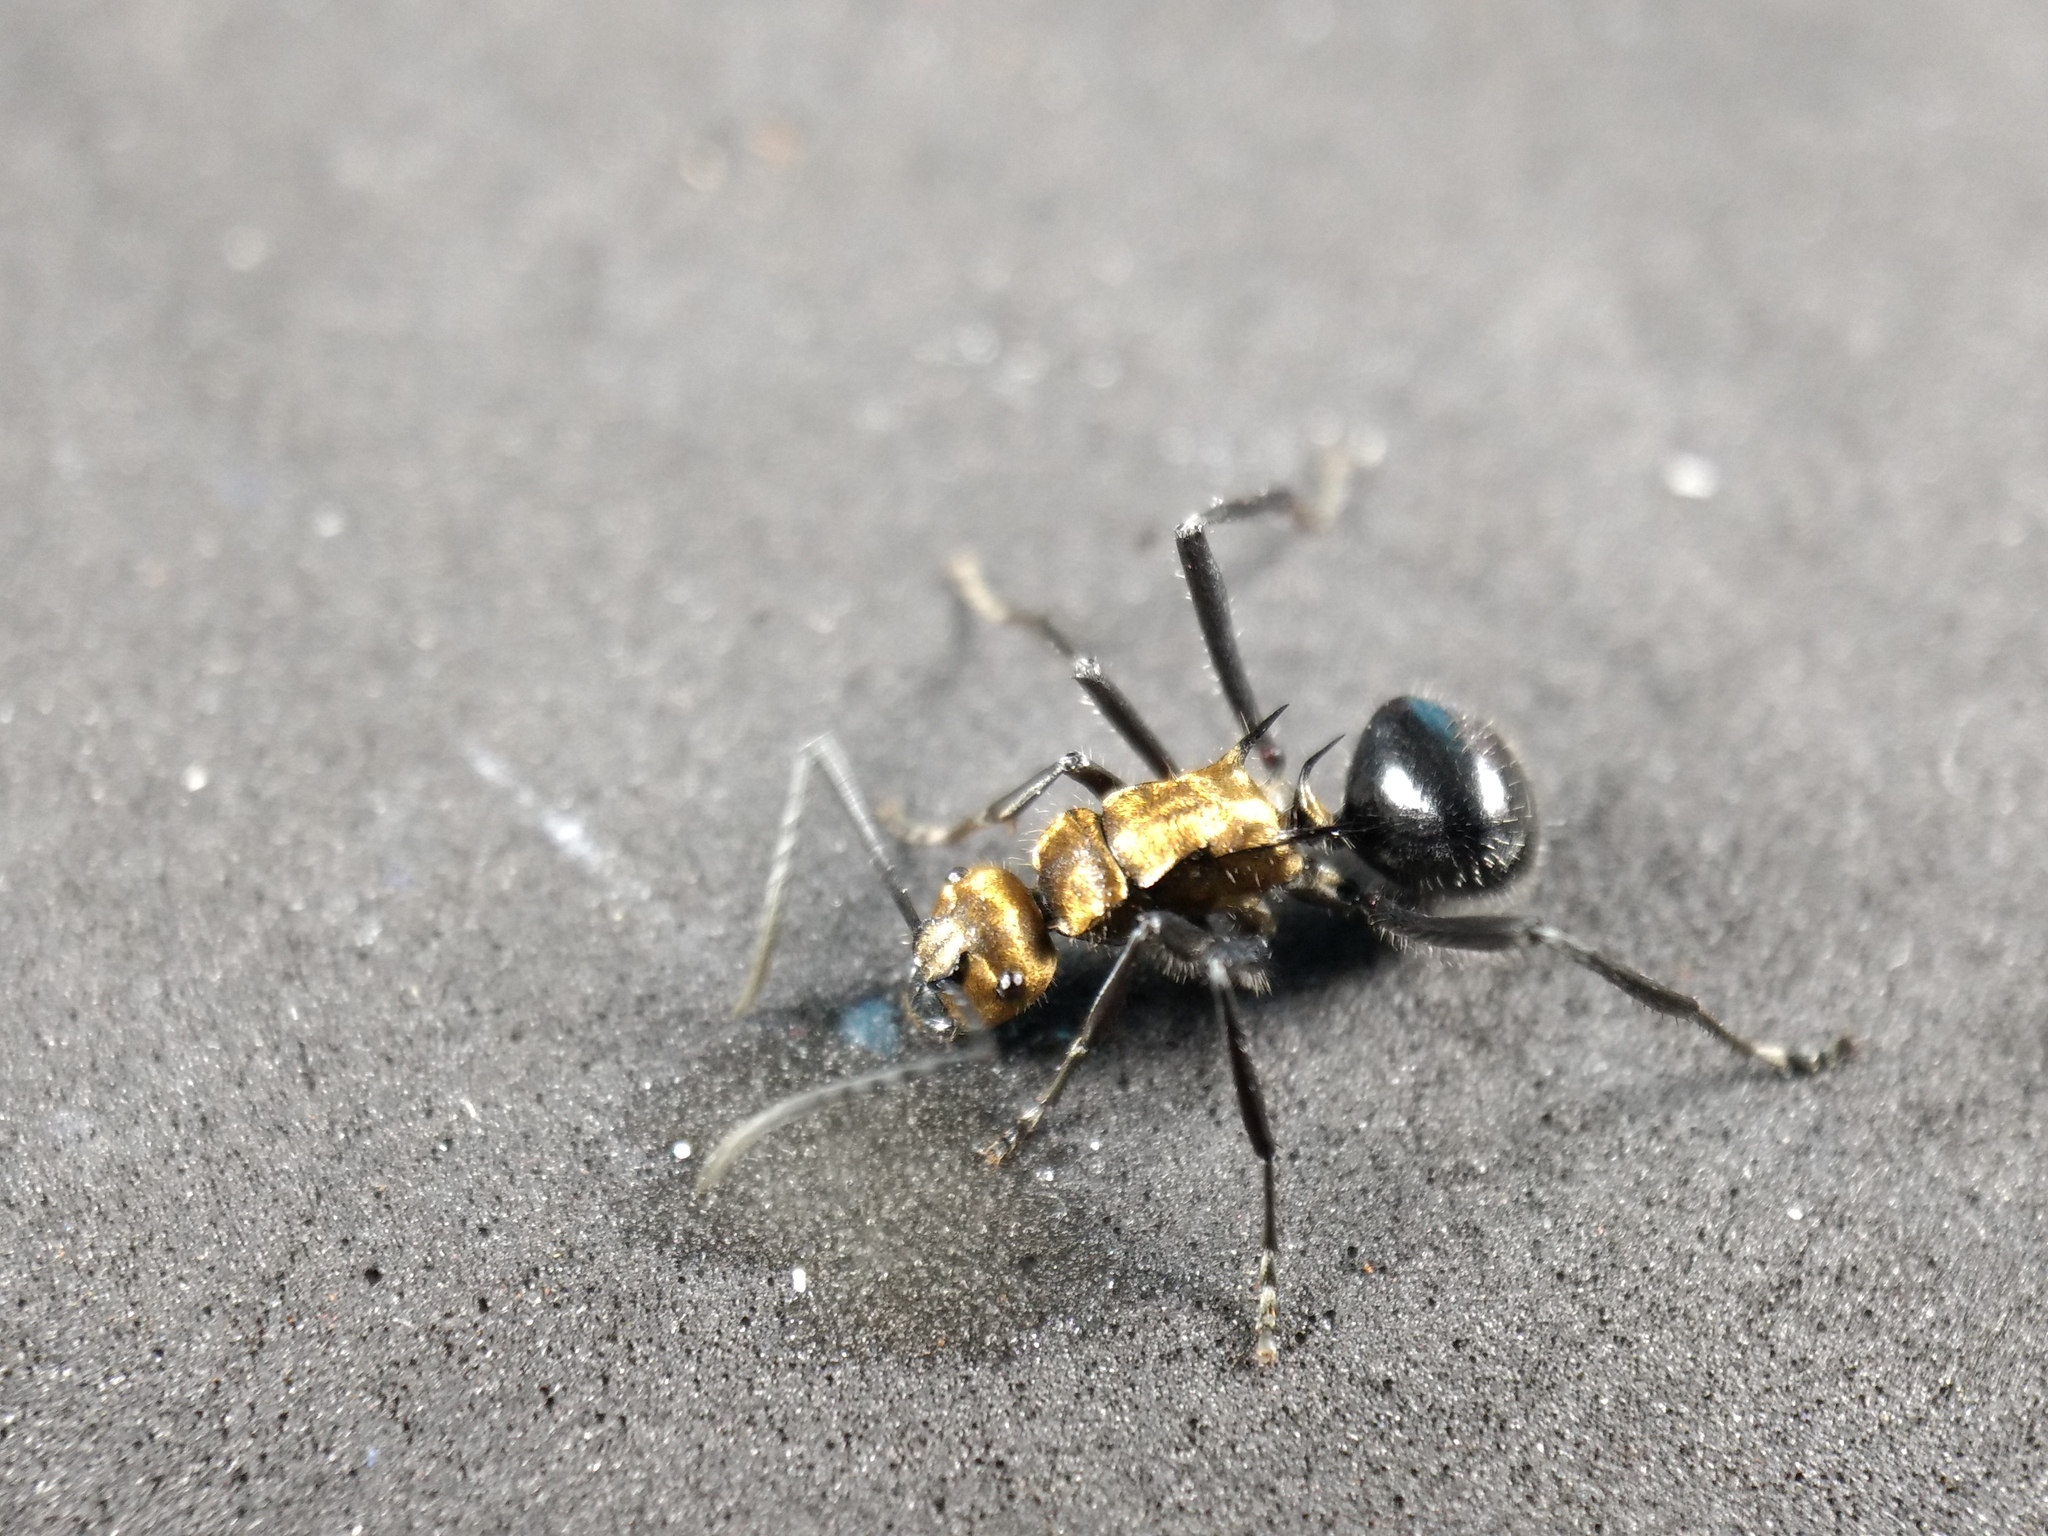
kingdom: Animalia
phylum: Arthropoda
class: Insecta
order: Hymenoptera
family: Formicidae
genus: Polyrhachis
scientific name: Polyrhachis semiaurata
